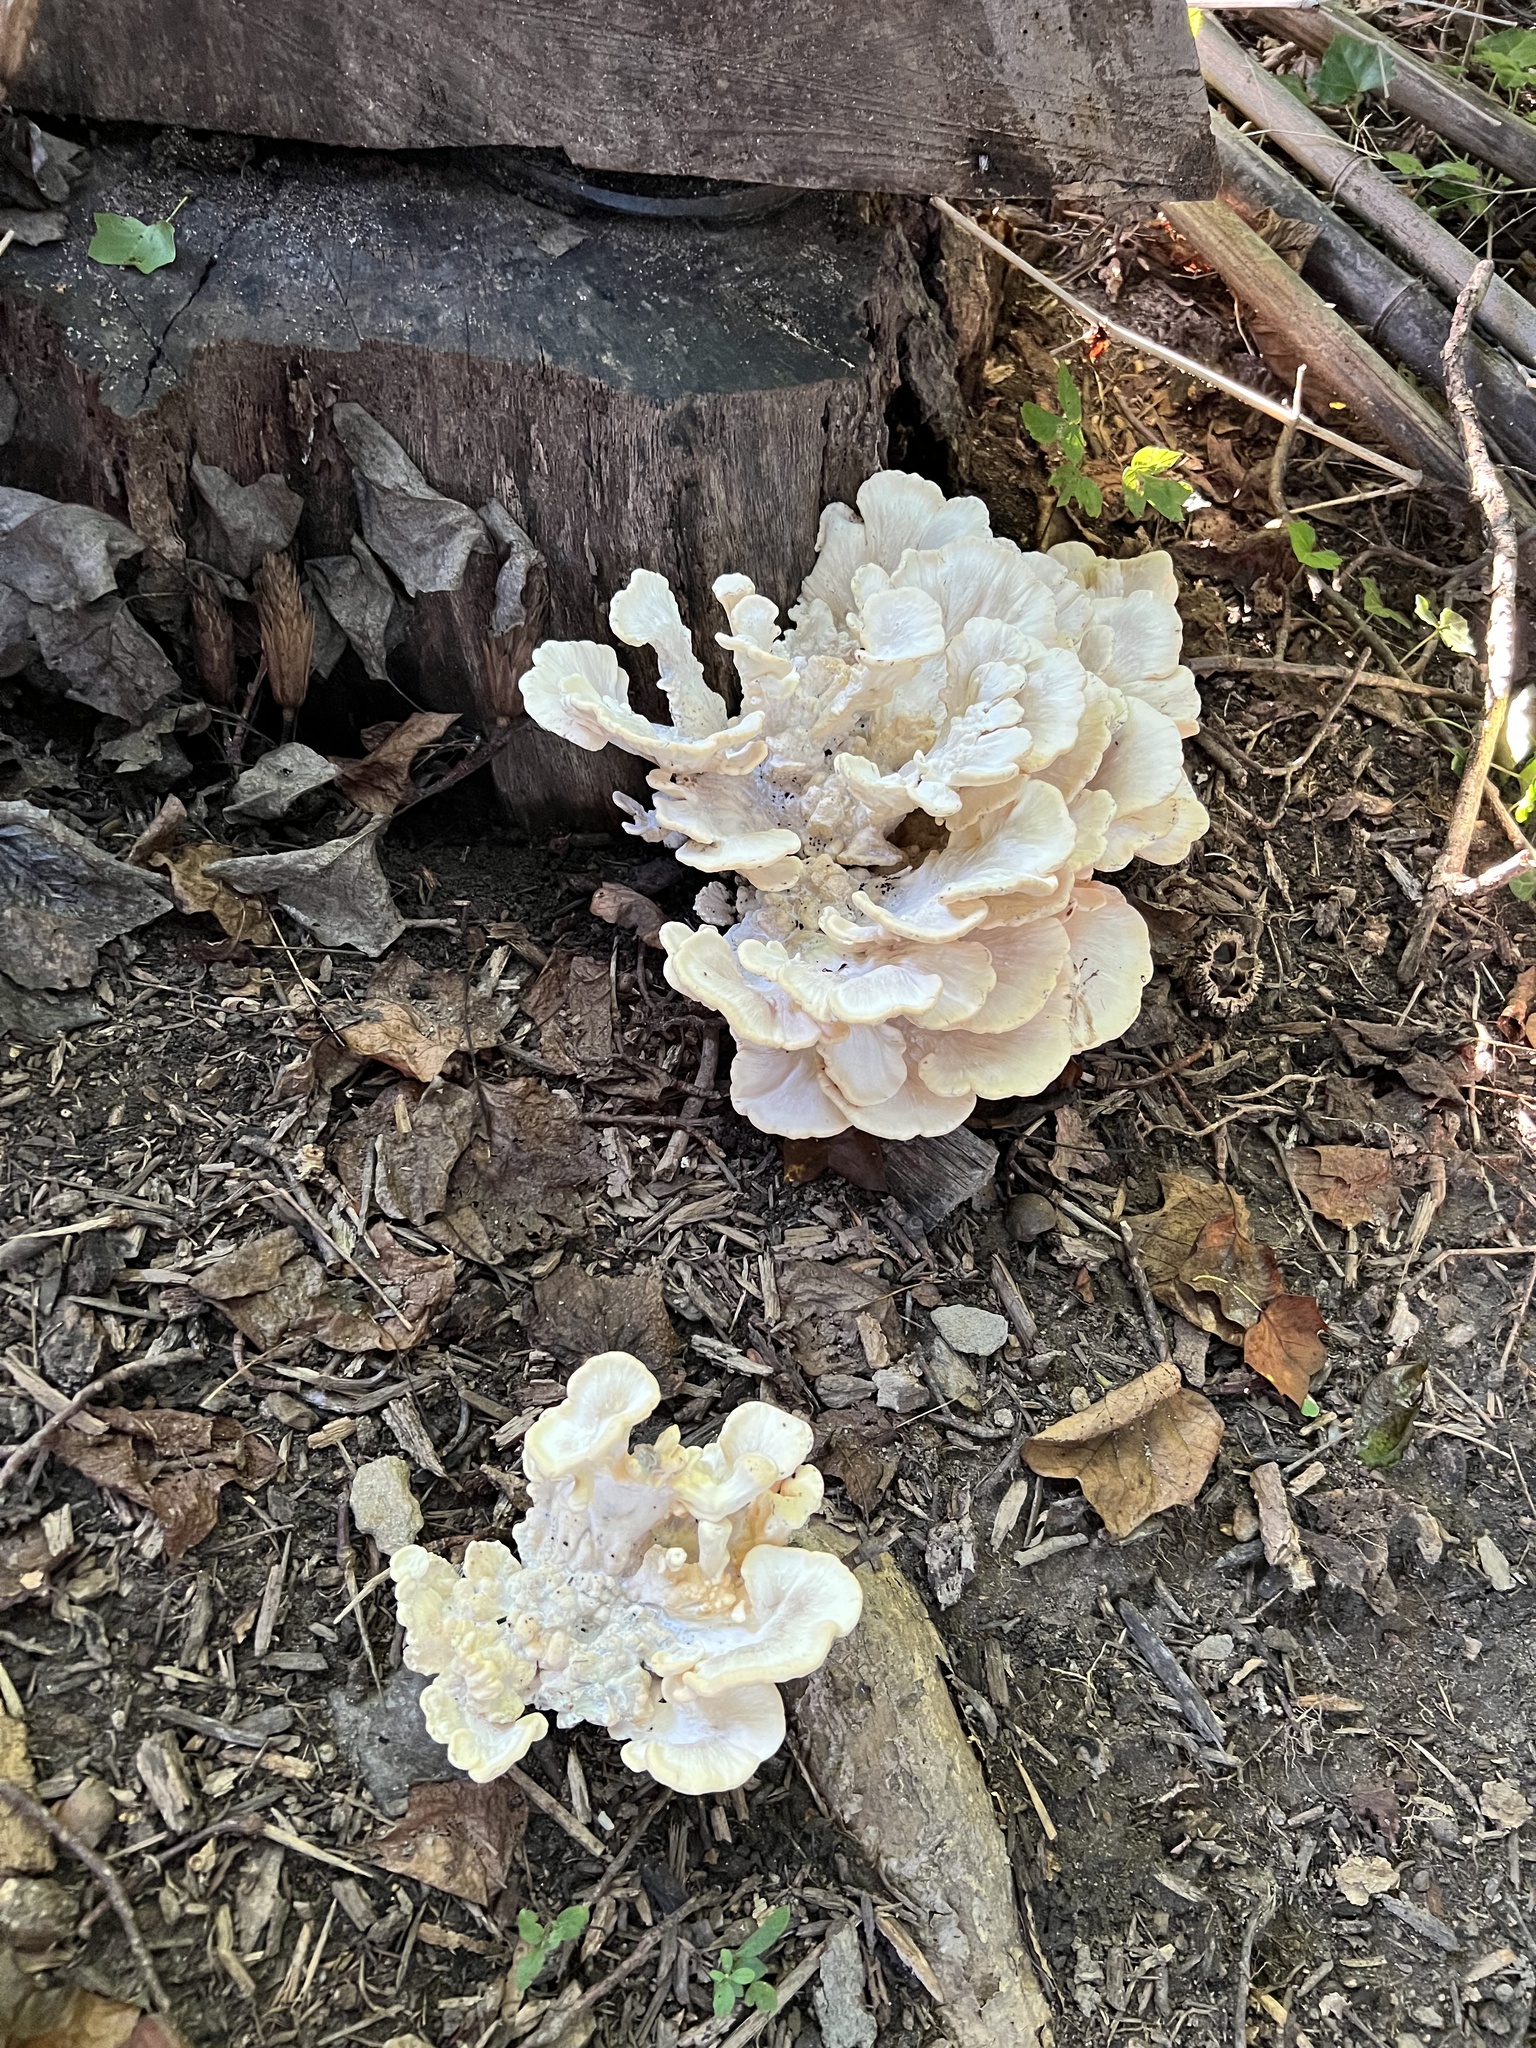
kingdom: Fungi
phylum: Basidiomycota
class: Agaricomycetes
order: Polyporales
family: Meripilaceae
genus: Meripilus
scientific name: Meripilus sumstinei
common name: Black-staining polypore
